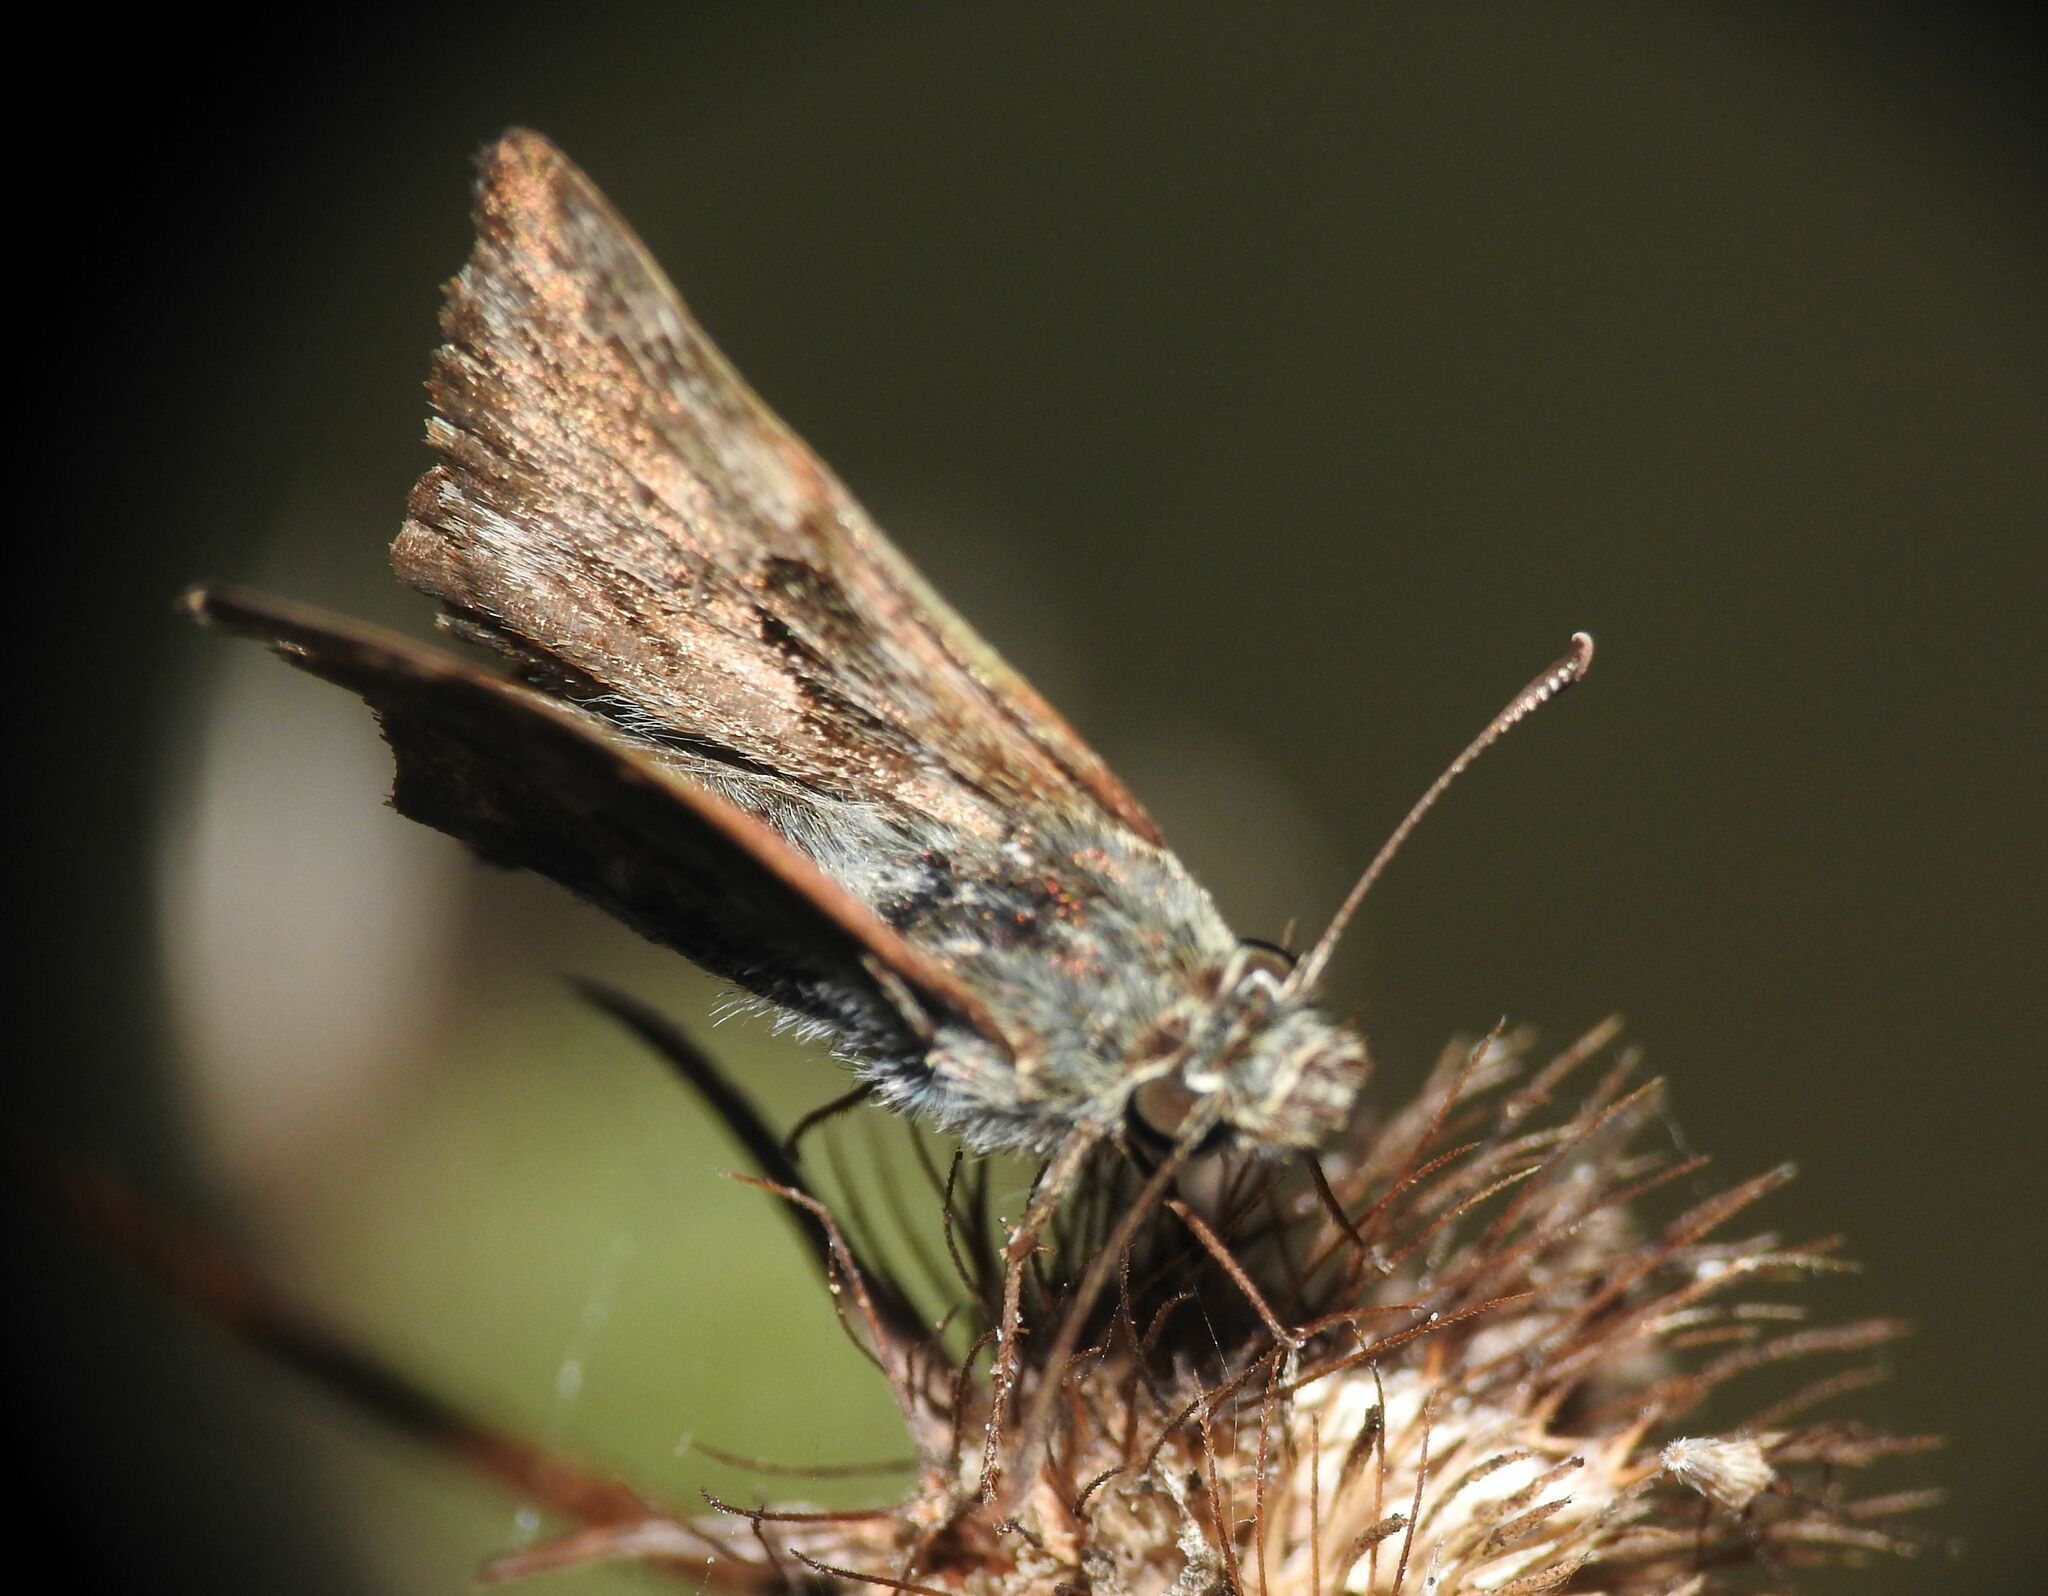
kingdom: Animalia
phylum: Arthropoda
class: Insecta
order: Lepidoptera
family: Hesperiidae
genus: Carcharodus
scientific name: Carcharodus alceae
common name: Mallow skipper
